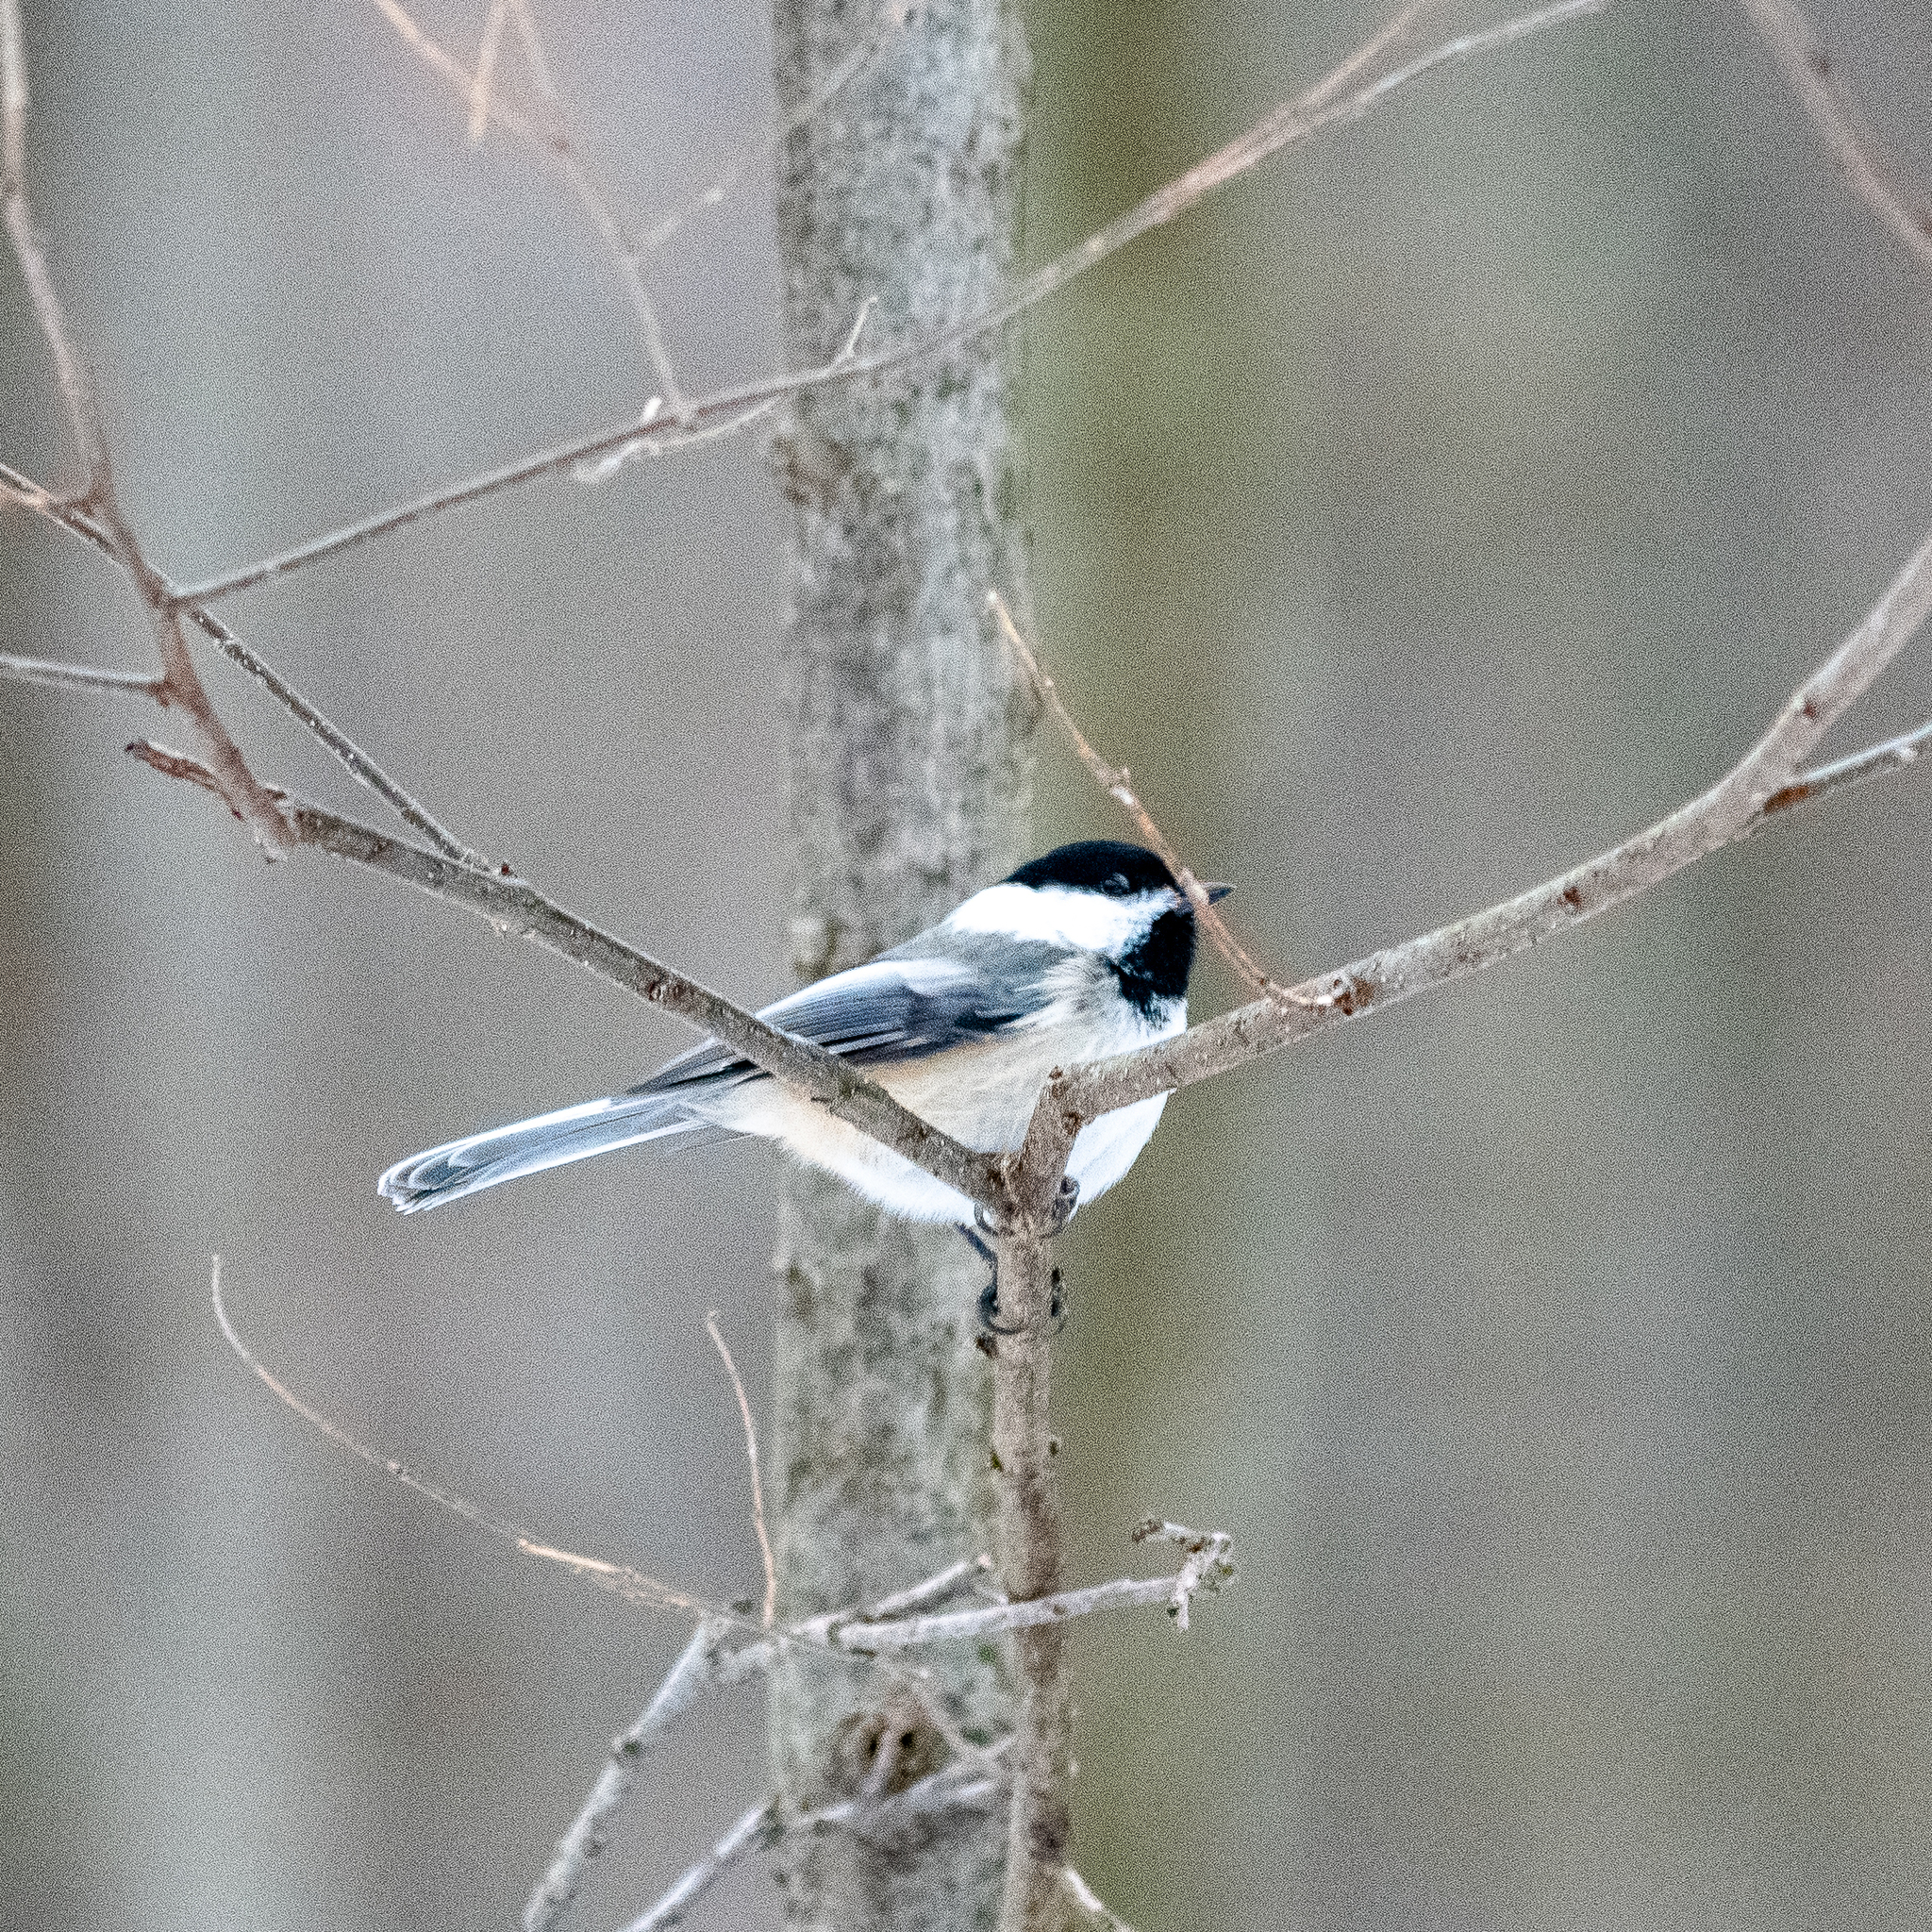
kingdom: Animalia
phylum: Chordata
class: Aves
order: Passeriformes
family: Paridae
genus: Poecile
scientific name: Poecile atricapillus
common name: Black-capped chickadee
